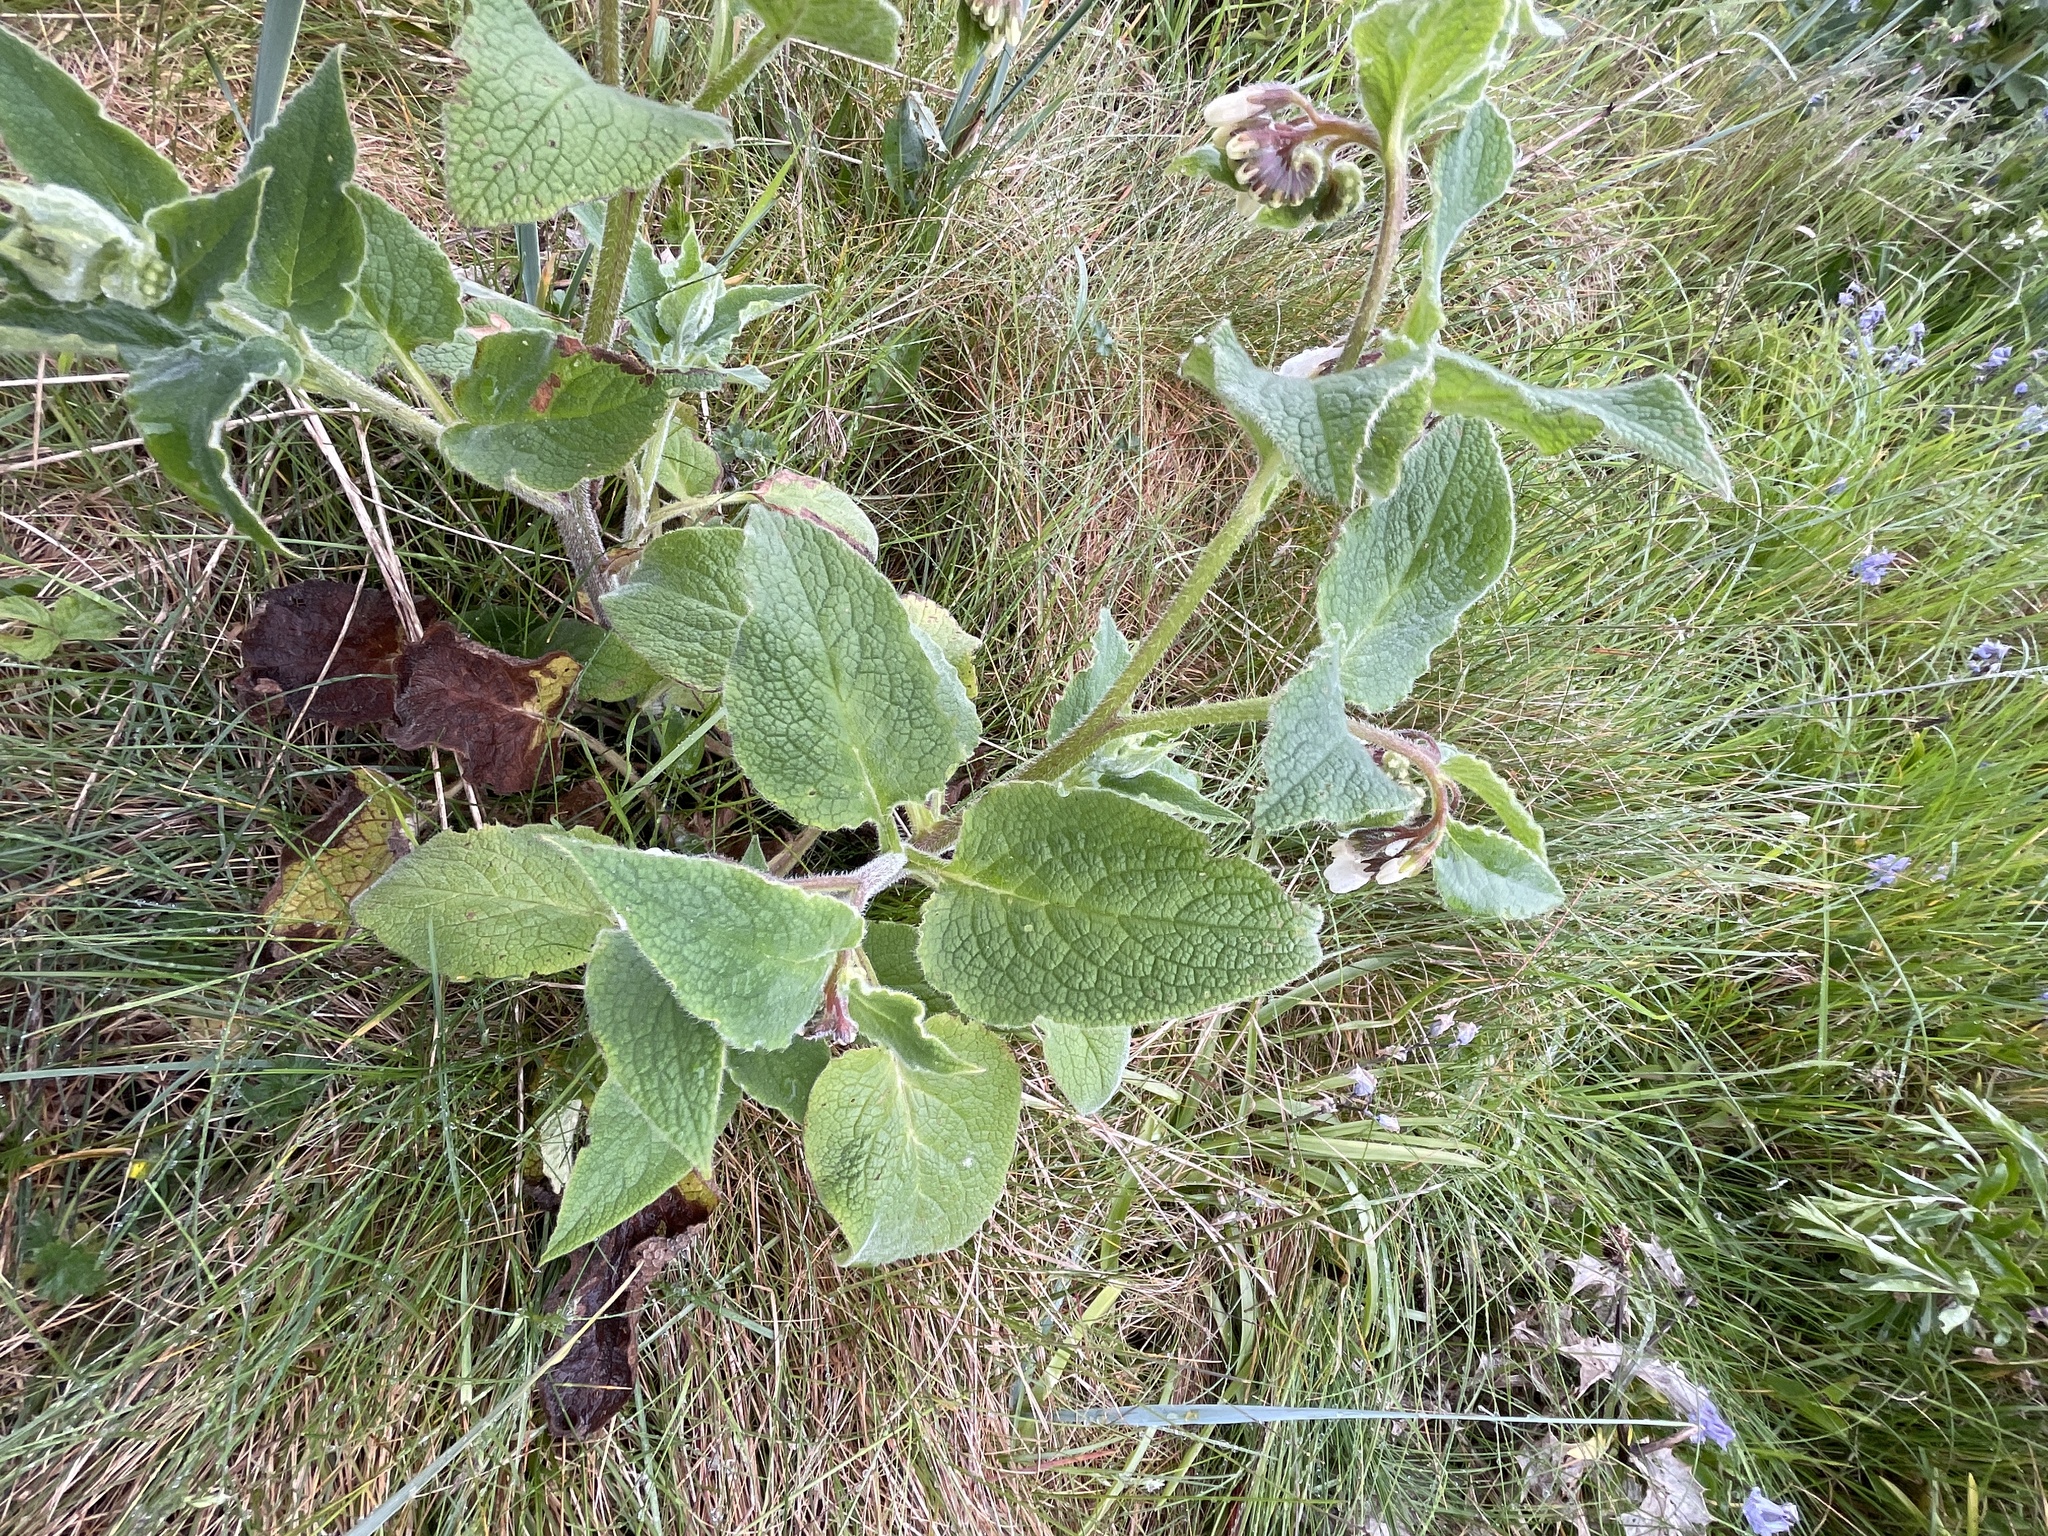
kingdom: Plantae
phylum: Tracheophyta
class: Magnoliopsida
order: Boraginales
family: Boraginaceae
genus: Symphytum
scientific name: Symphytum orientale
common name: White comfrey
